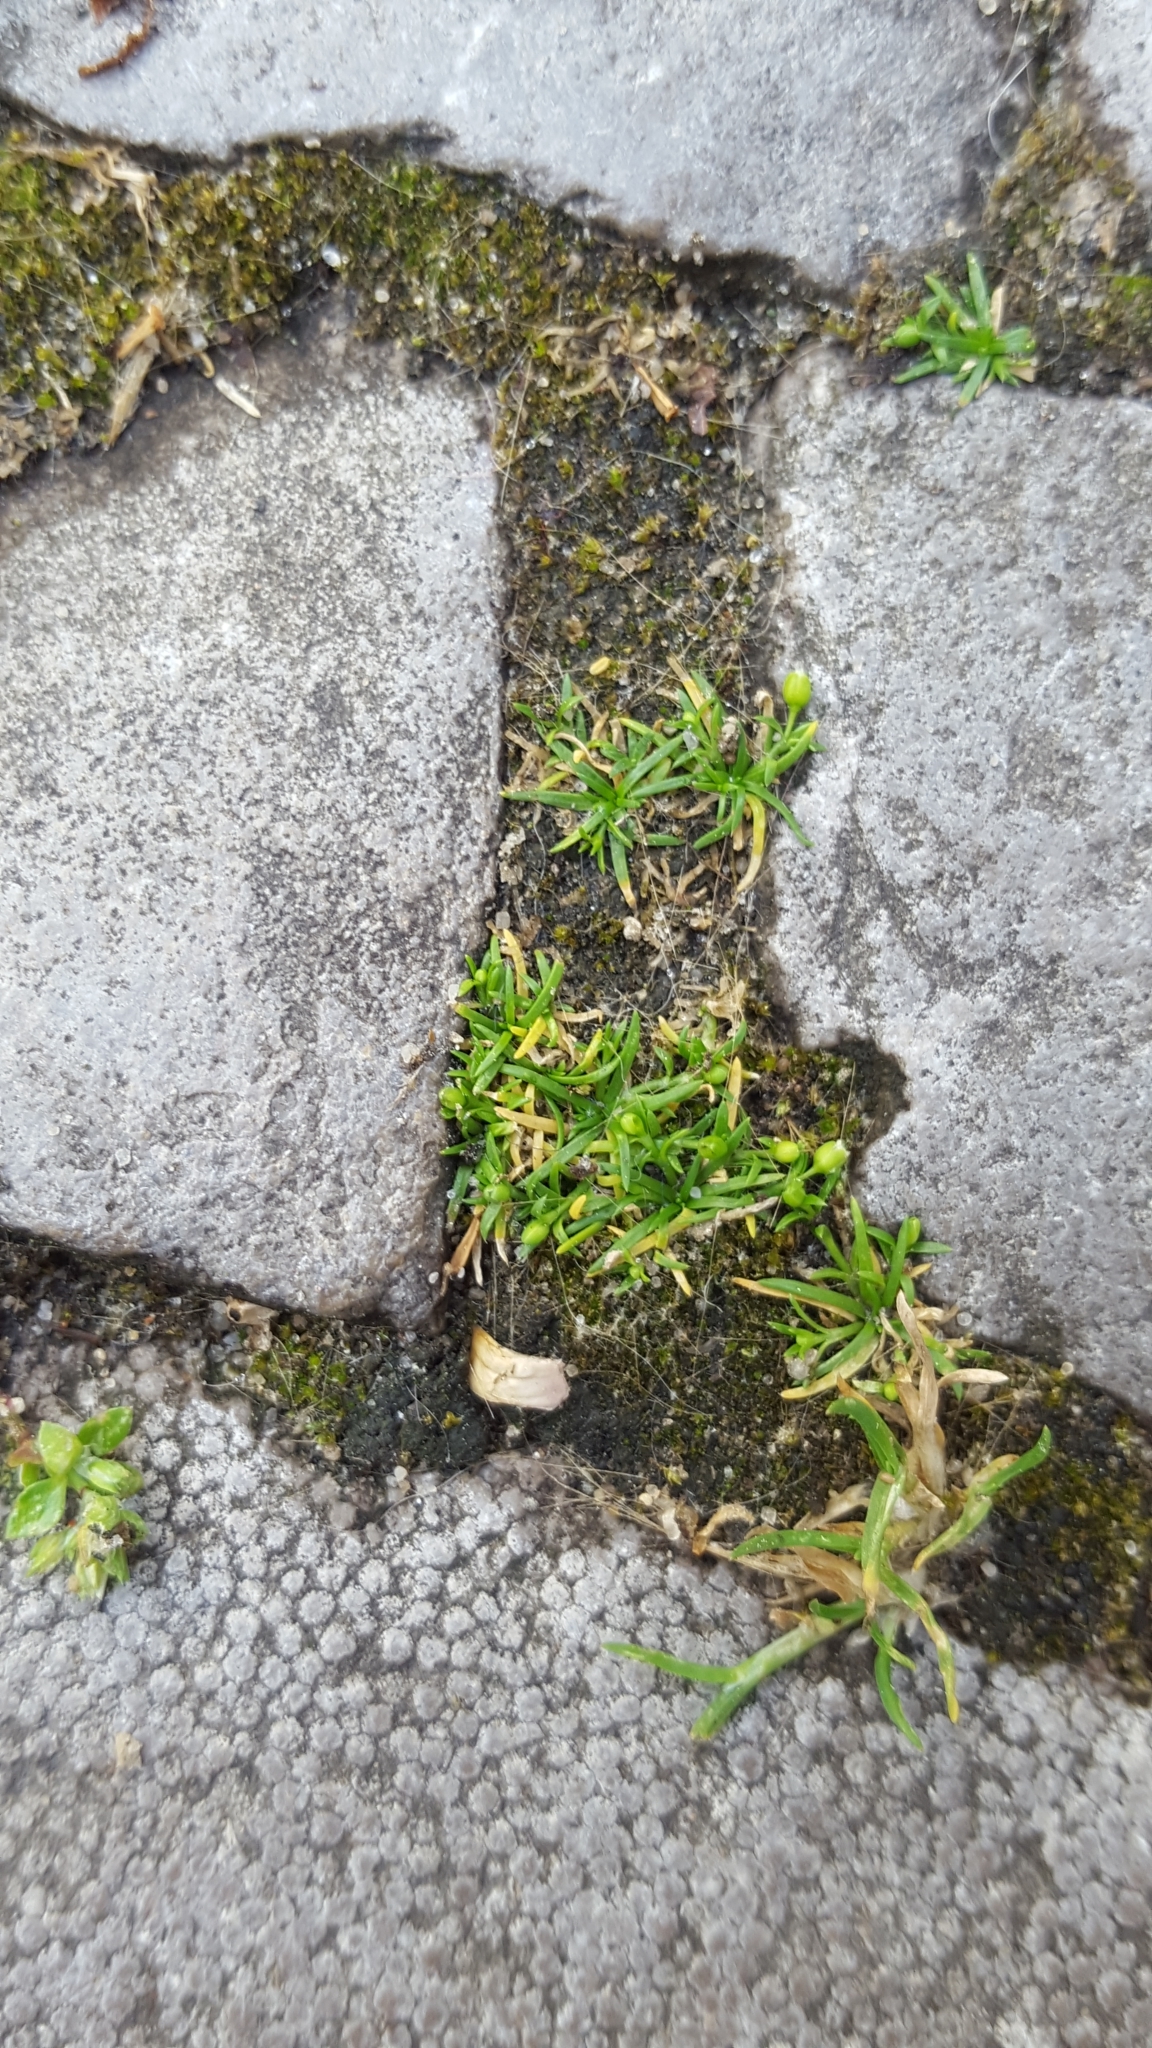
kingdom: Plantae
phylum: Tracheophyta
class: Magnoliopsida
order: Caryophyllales
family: Caryophyllaceae
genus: Sagina
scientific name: Sagina procumbens
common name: Procumbent pearlwort
